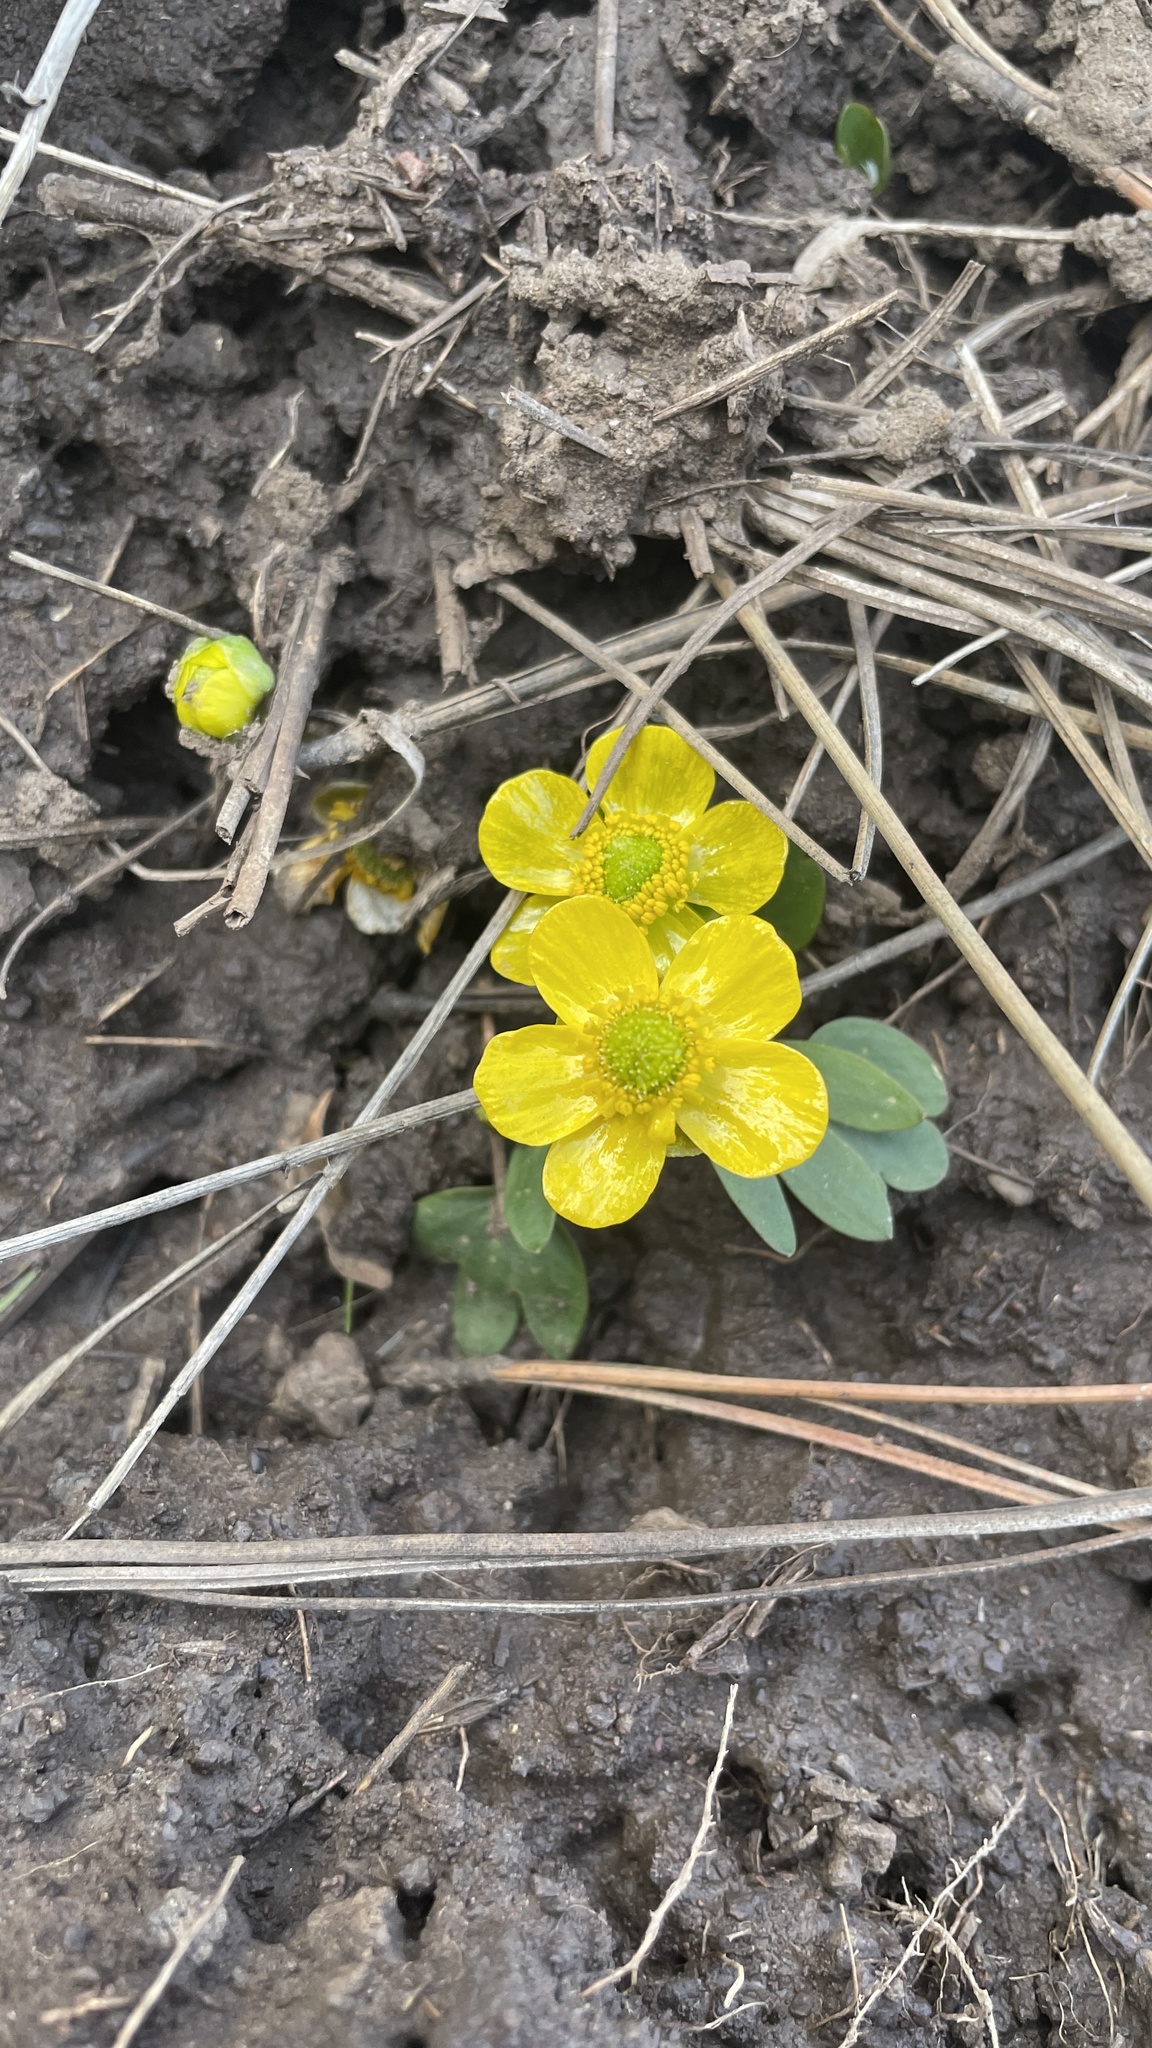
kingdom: Plantae
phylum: Tracheophyta
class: Magnoliopsida
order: Ranunculales
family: Ranunculaceae
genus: Ranunculus
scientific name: Ranunculus glaberrimus
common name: Sagebrush buttercup
